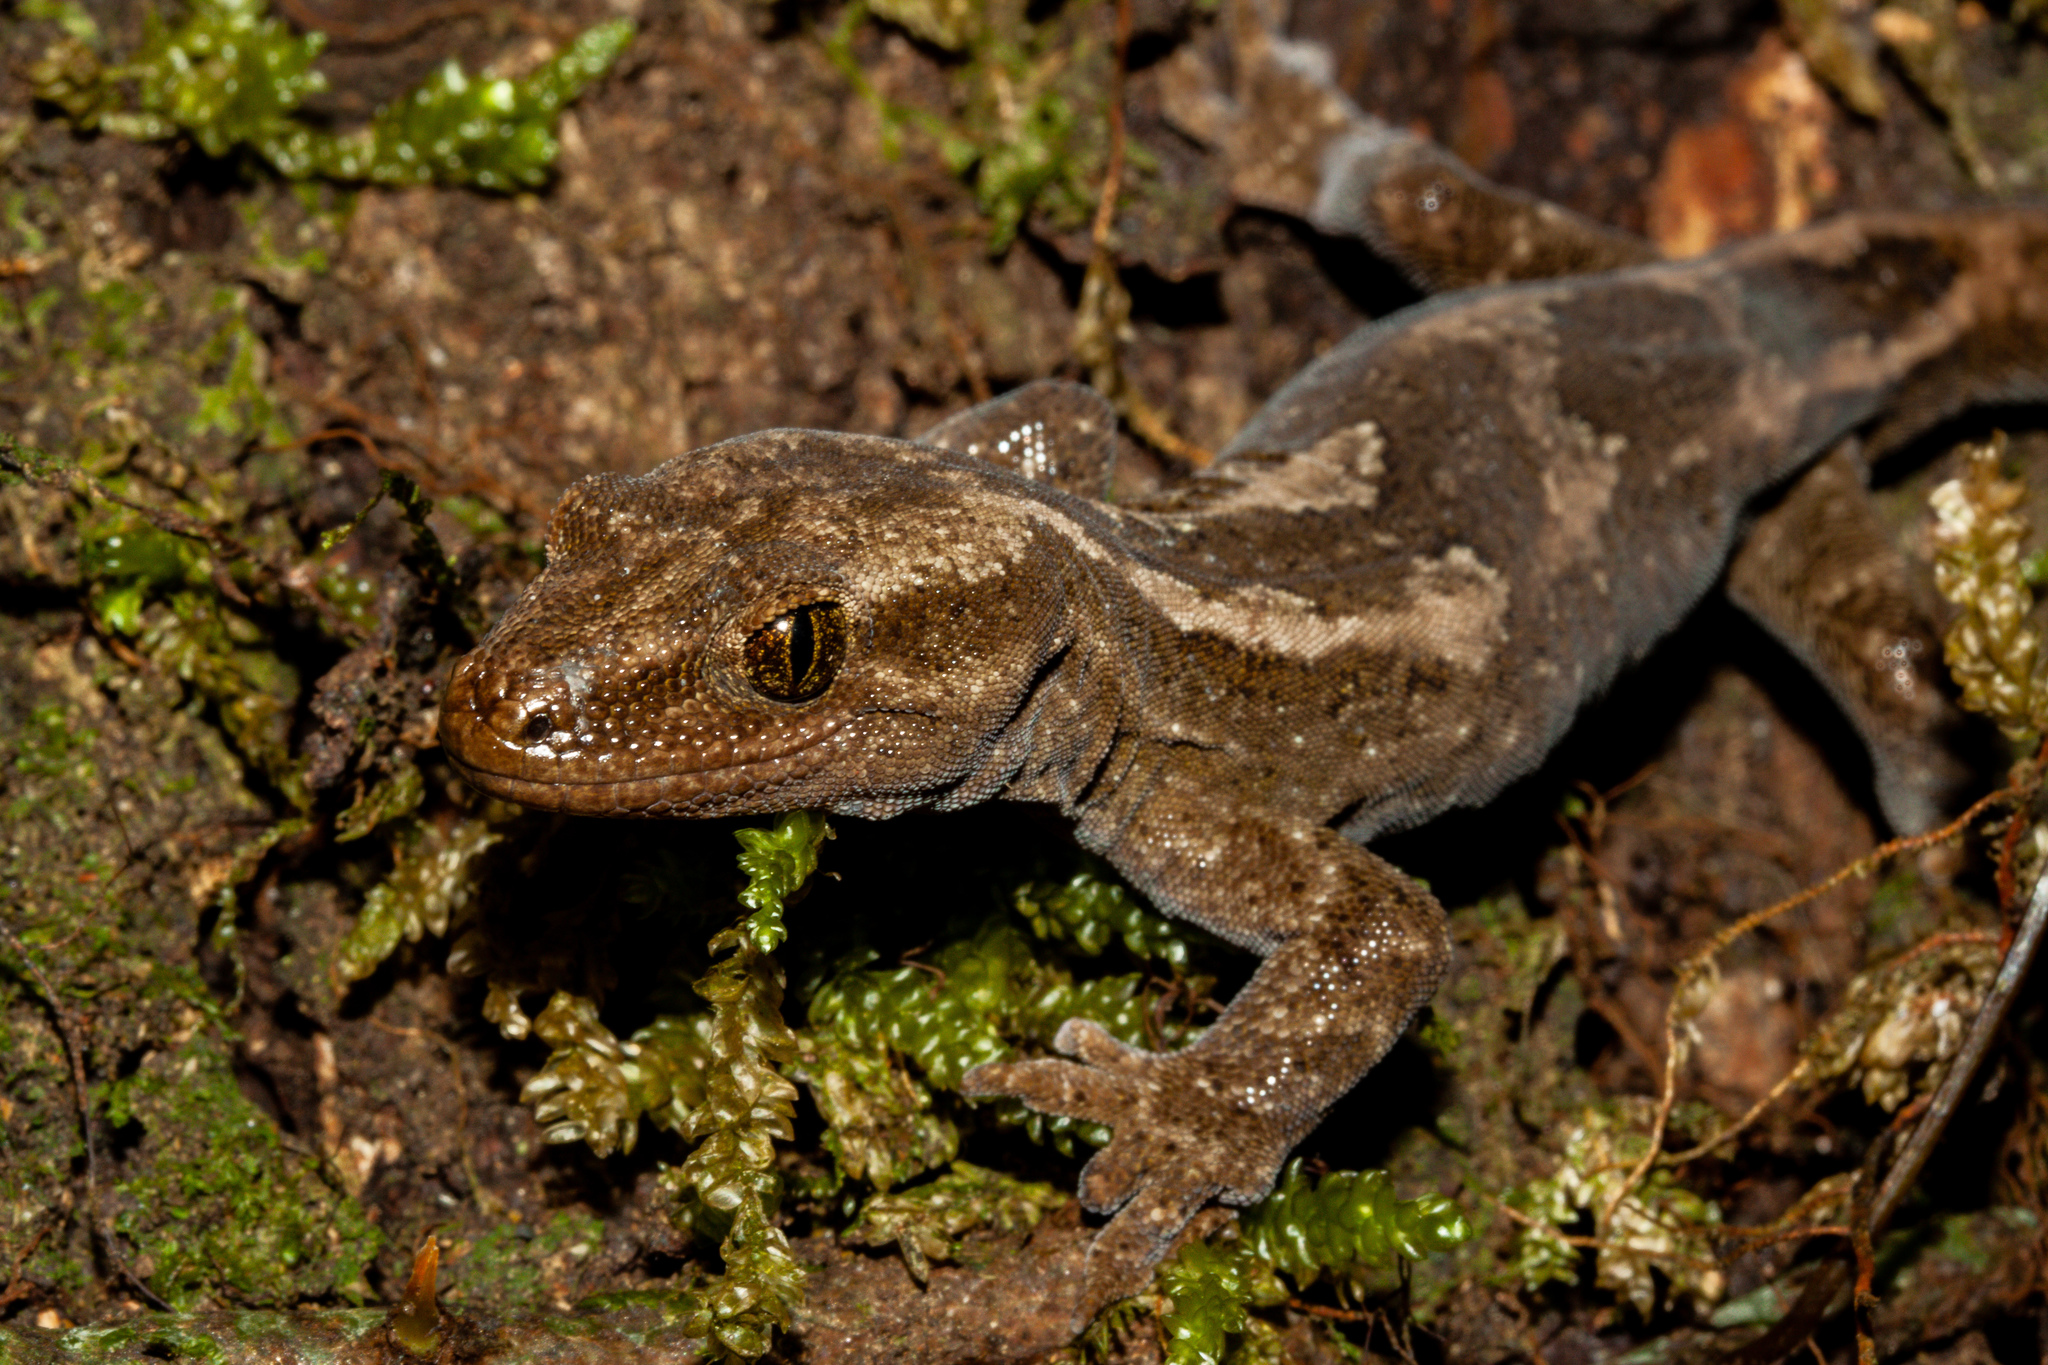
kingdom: Animalia
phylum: Chordata
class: Squamata
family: Diplodactylidae
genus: Woodworthia
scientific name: Woodworthia
